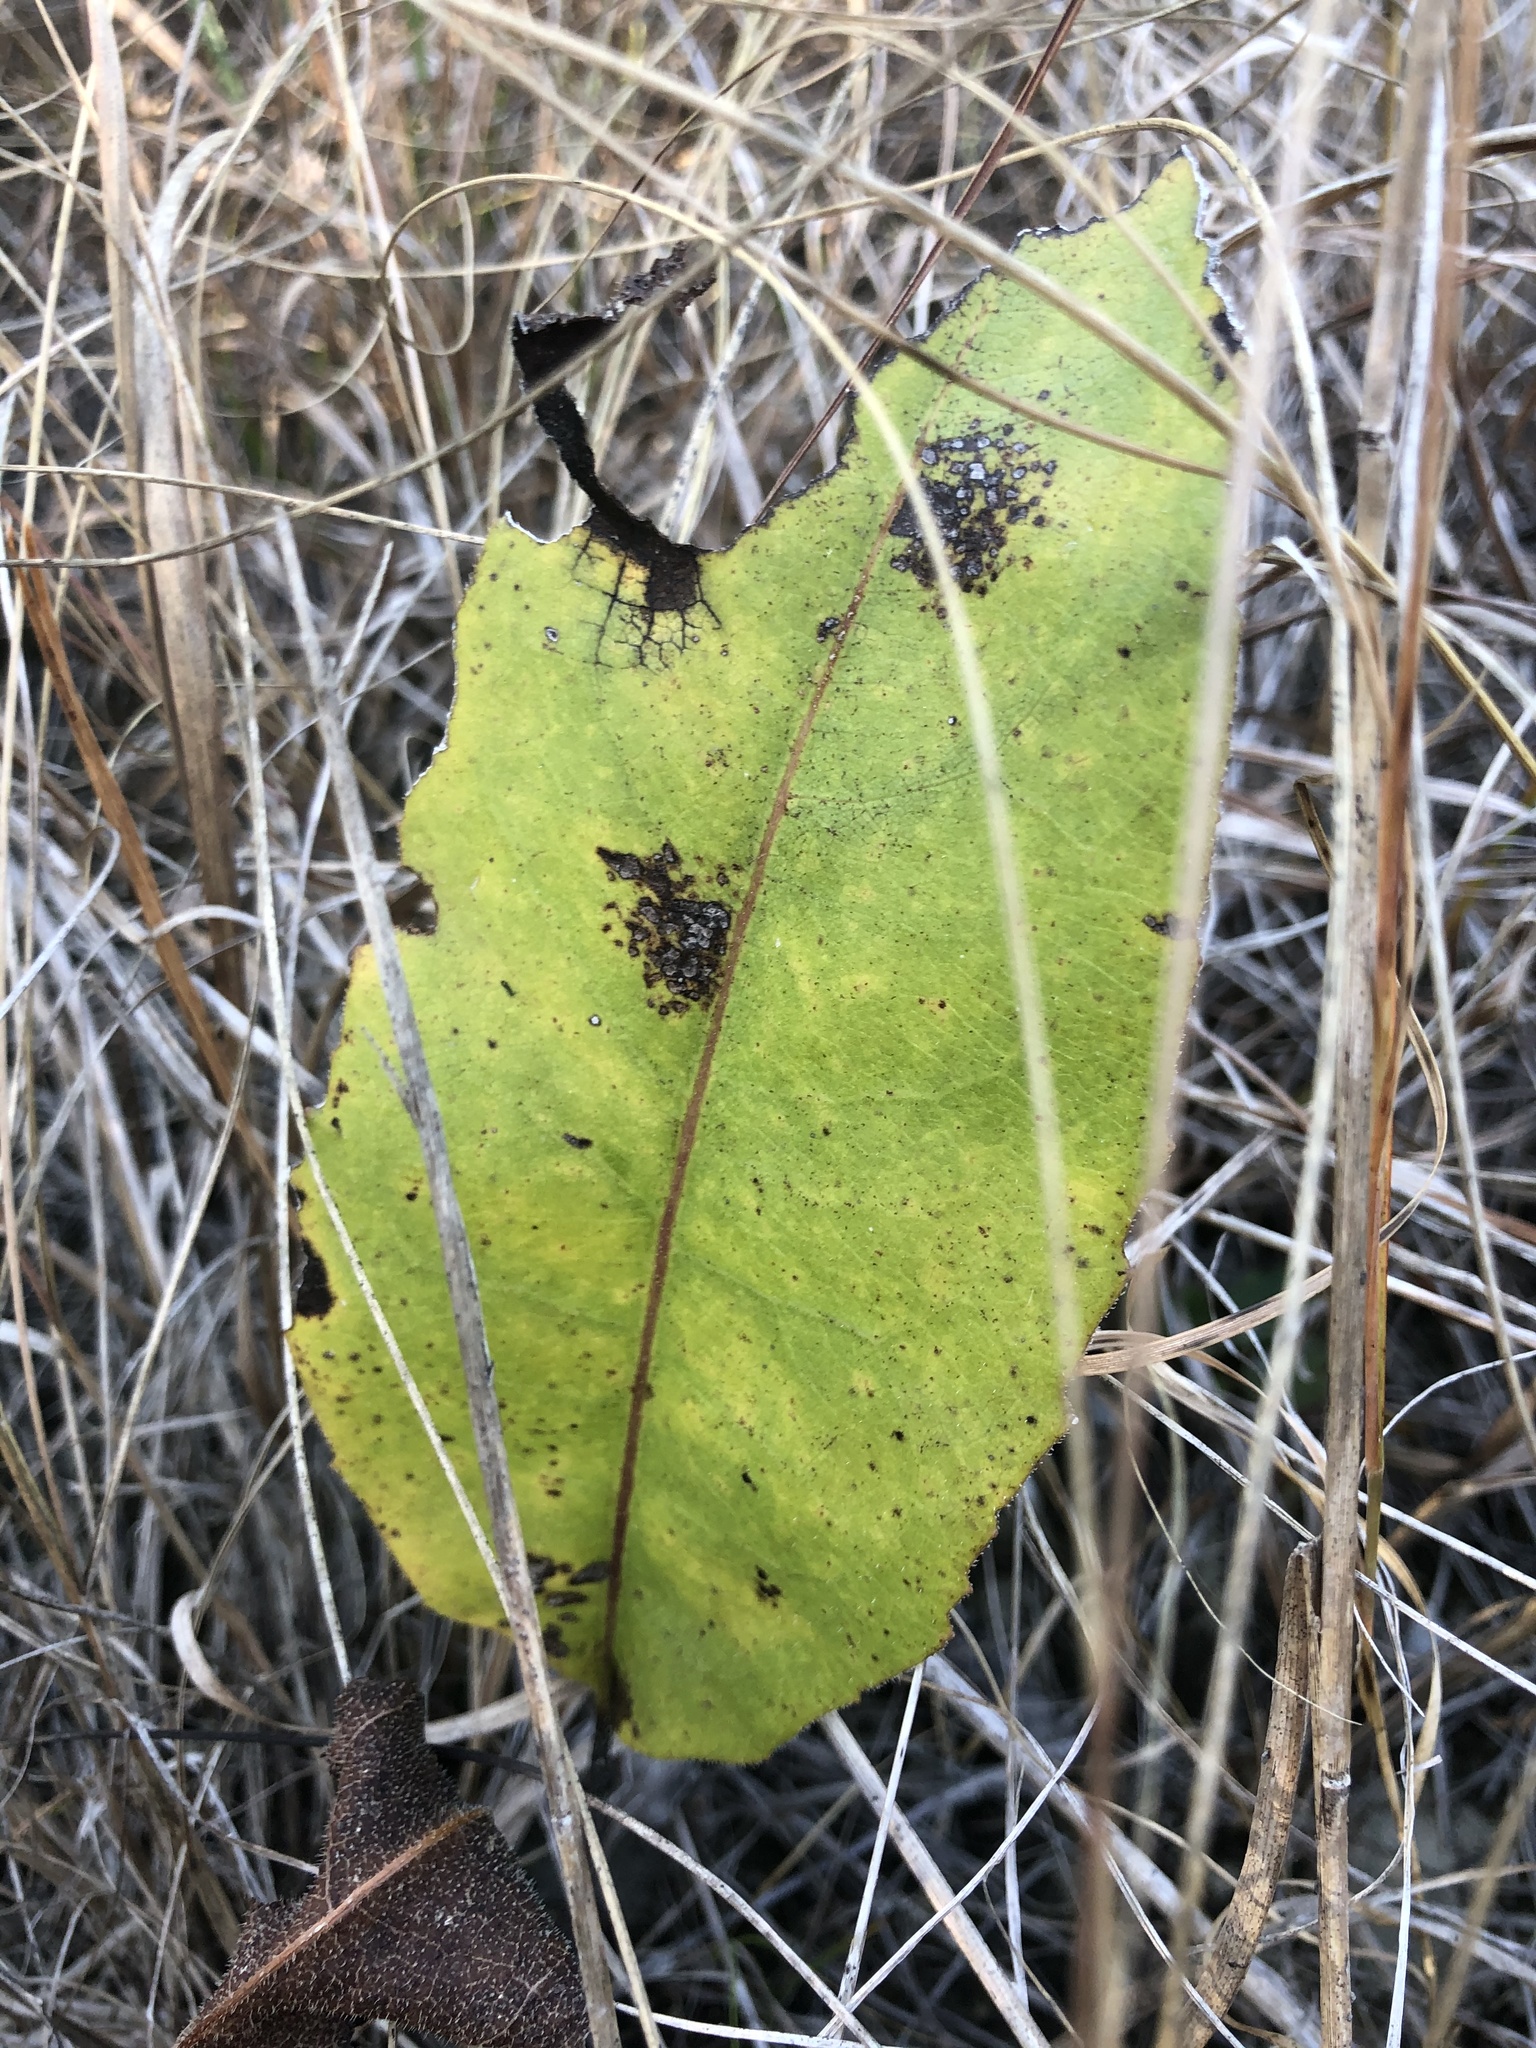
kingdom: Plantae
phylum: Tracheophyta
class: Magnoliopsida
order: Asterales
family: Asteraceae
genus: Silphium
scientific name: Silphium terebinthinaceum
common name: Basal-leaf rosinweed
